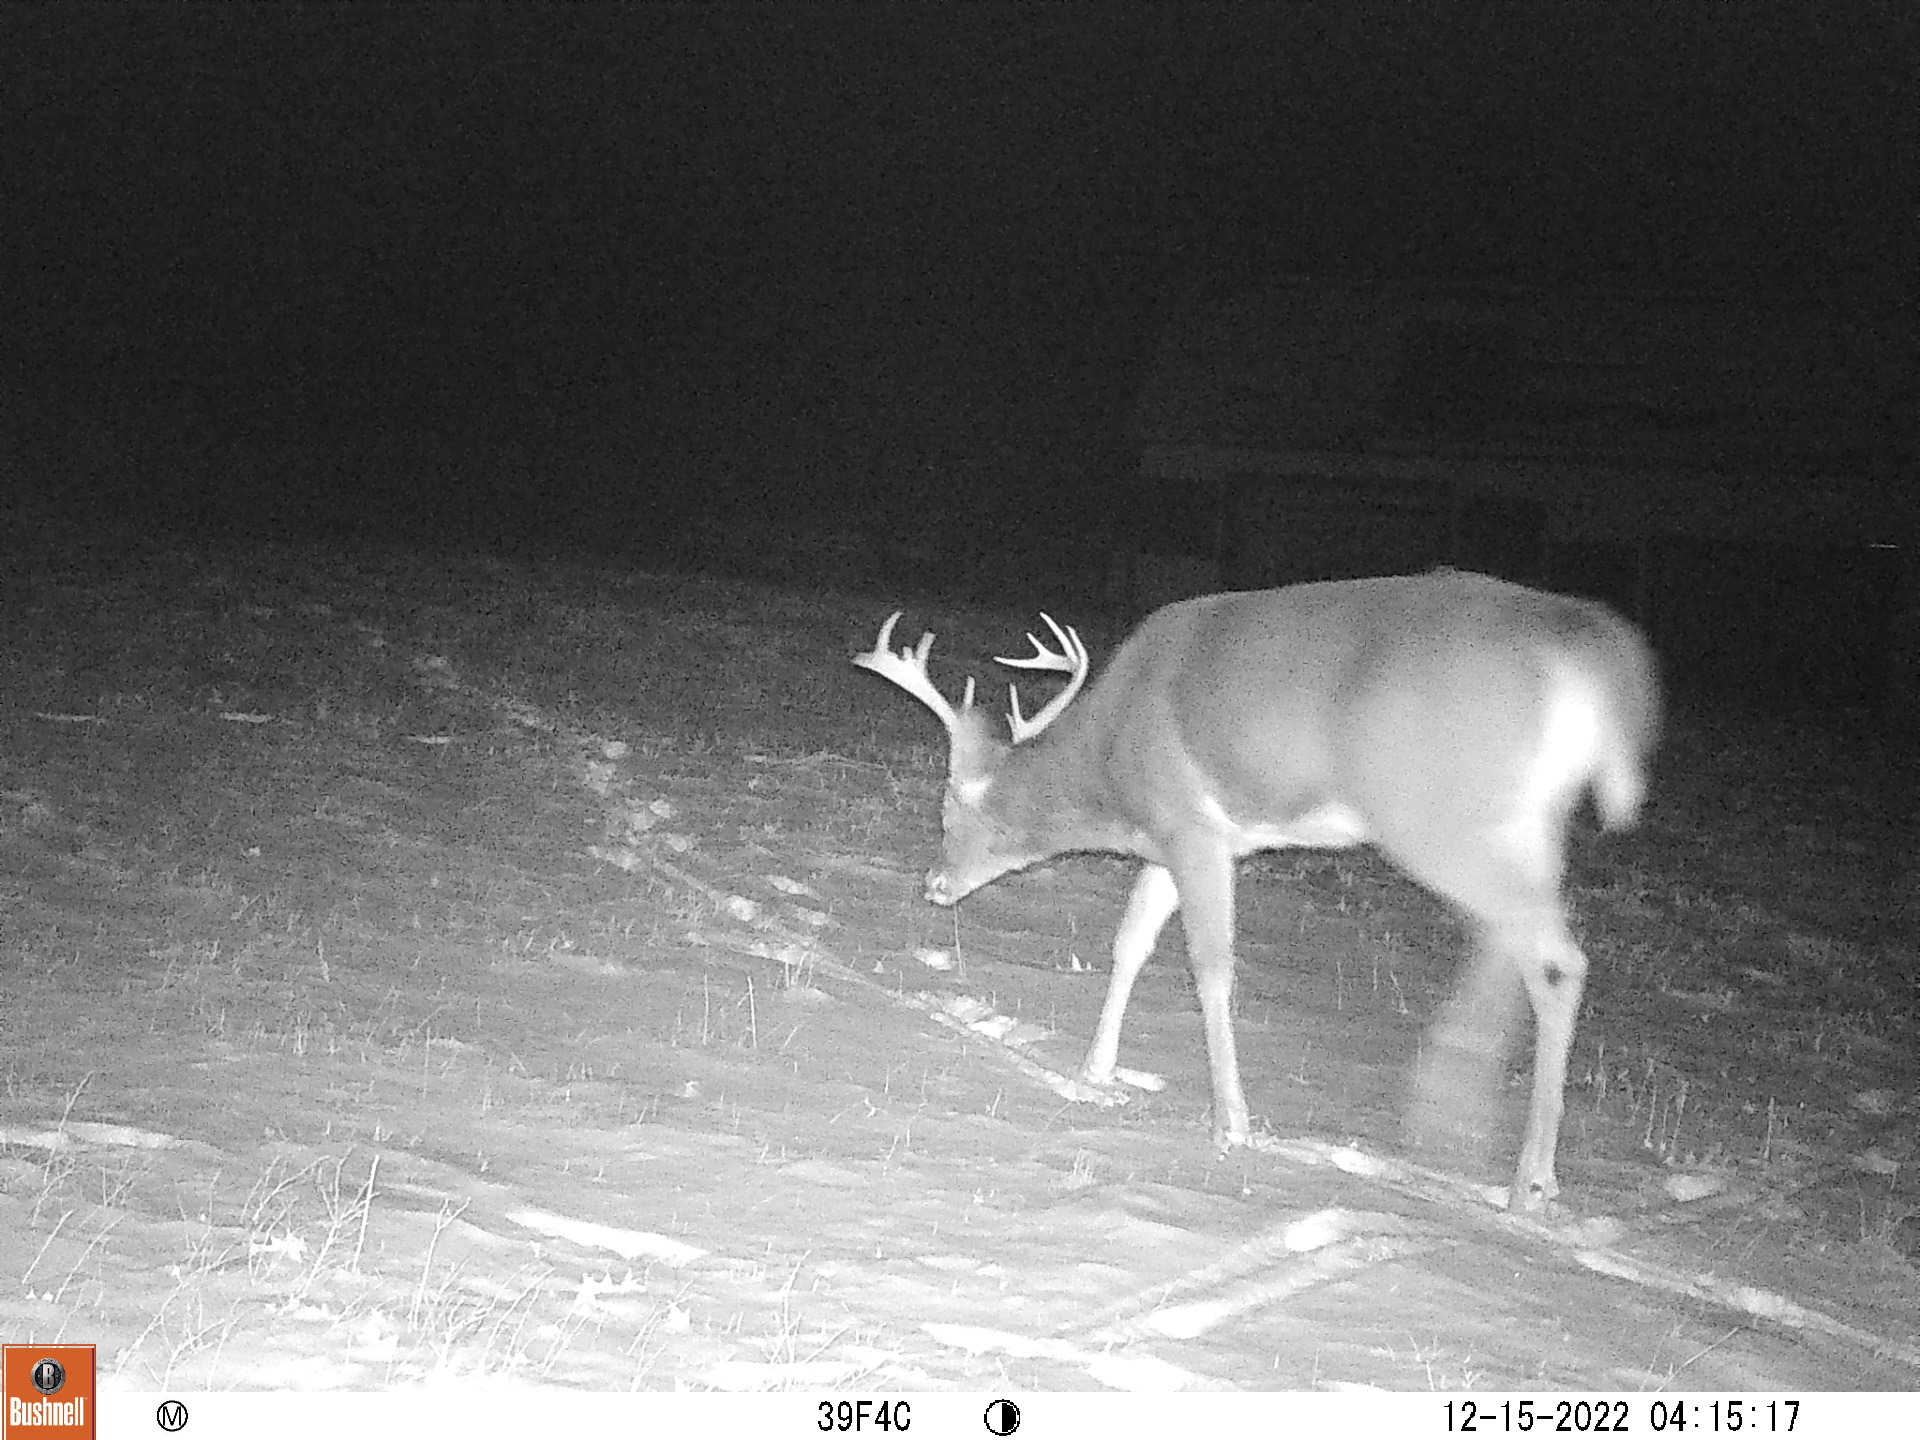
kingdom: Animalia
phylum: Chordata
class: Mammalia
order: Artiodactyla
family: Cervidae
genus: Odocoileus
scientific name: Odocoileus virginianus
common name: White-tailed deer
